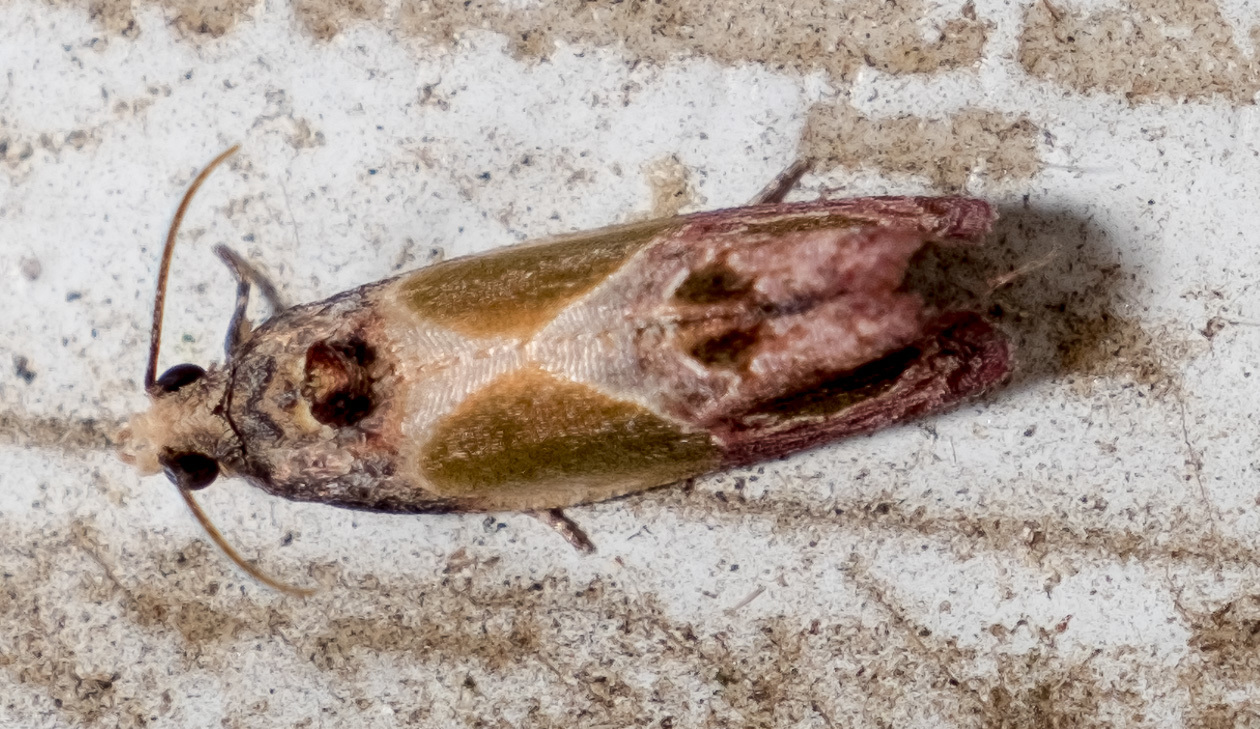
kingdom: Animalia
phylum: Arthropoda
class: Insecta
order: Lepidoptera
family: Tortricidae
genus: Eumarozia
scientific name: Eumarozia malachitana
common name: Sculptured moth
